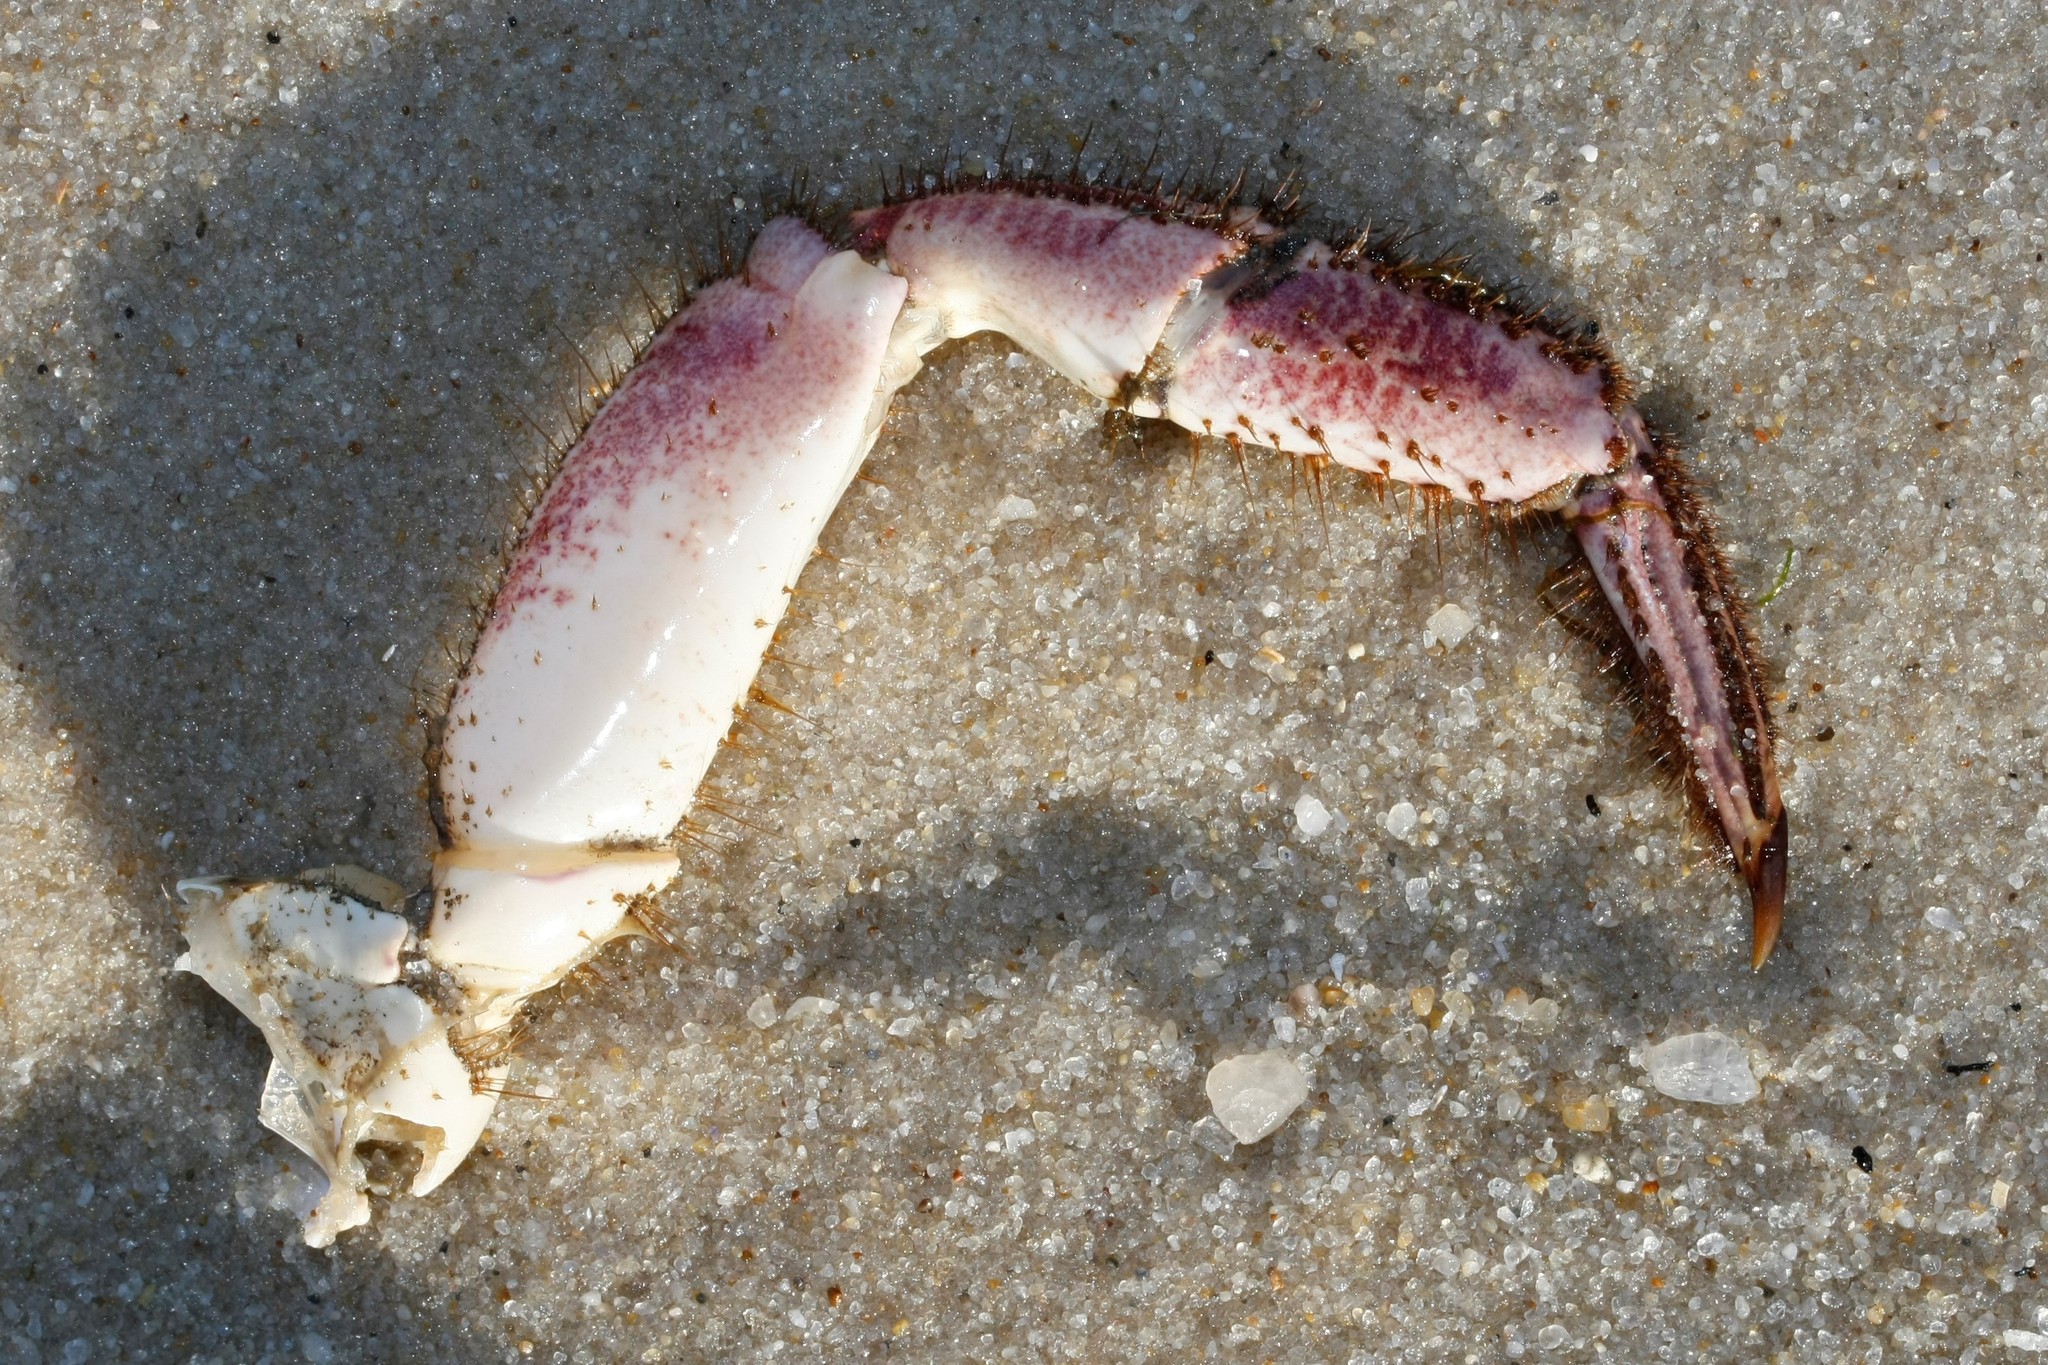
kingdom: Animalia
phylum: Arthropoda
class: Malacostraca
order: Decapoda
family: Cancridae
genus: Cancer
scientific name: Cancer pagurus
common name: Edible crab
